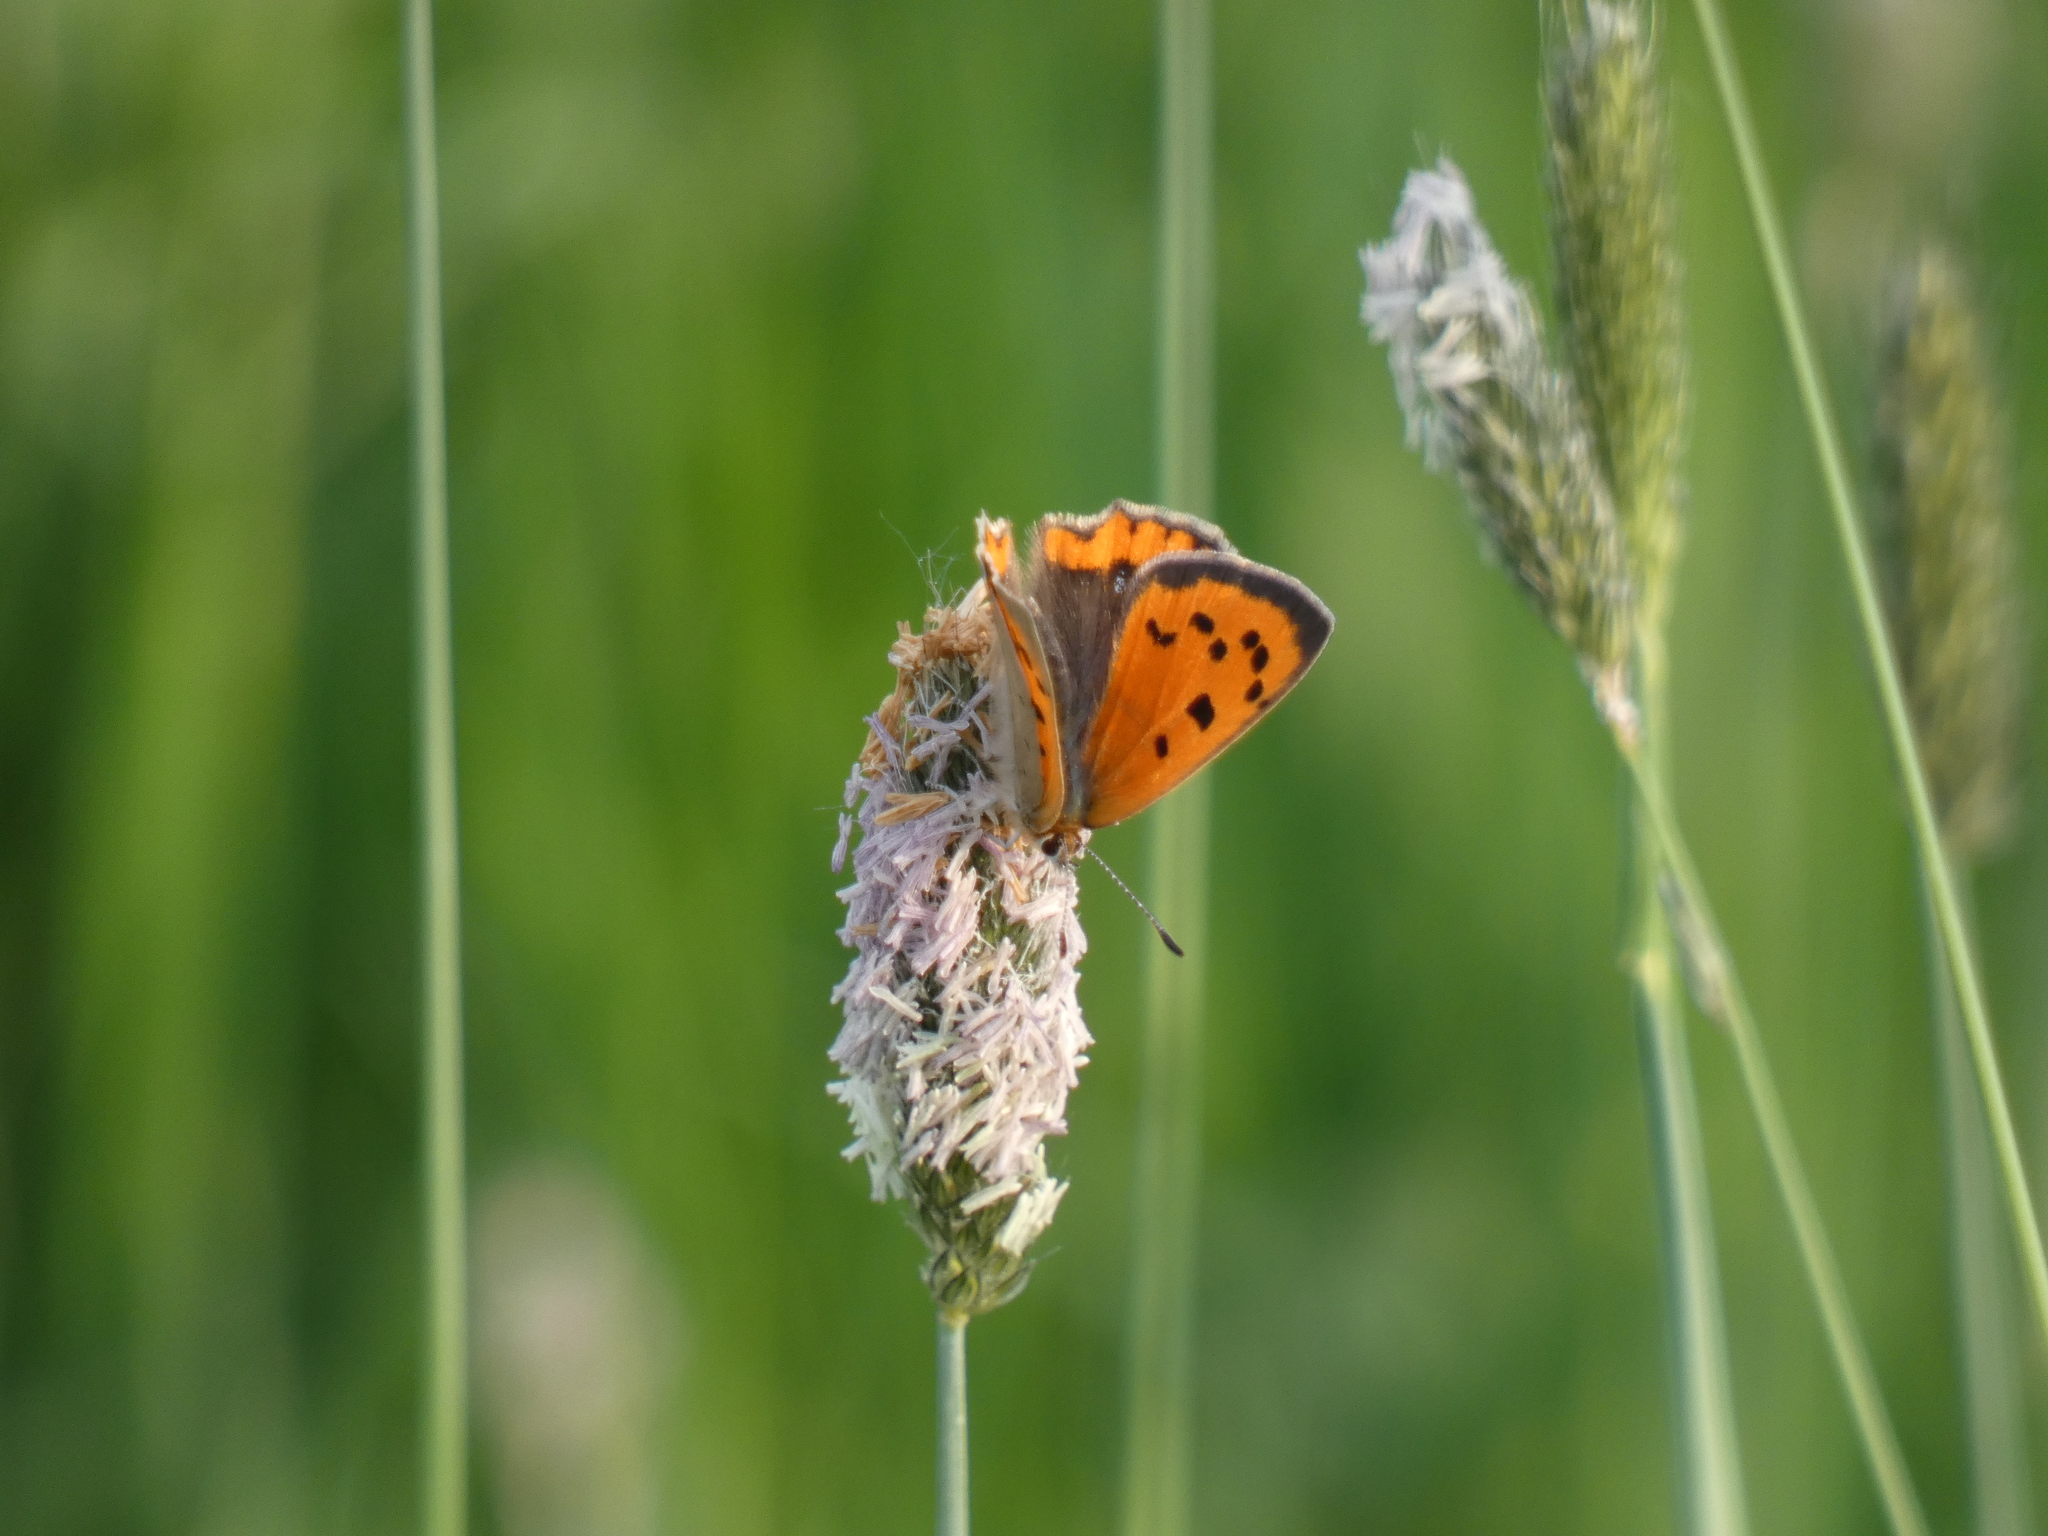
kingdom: Animalia
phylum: Arthropoda
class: Insecta
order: Lepidoptera
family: Lycaenidae
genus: Lycaena
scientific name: Lycaena phlaeas
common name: Small copper
